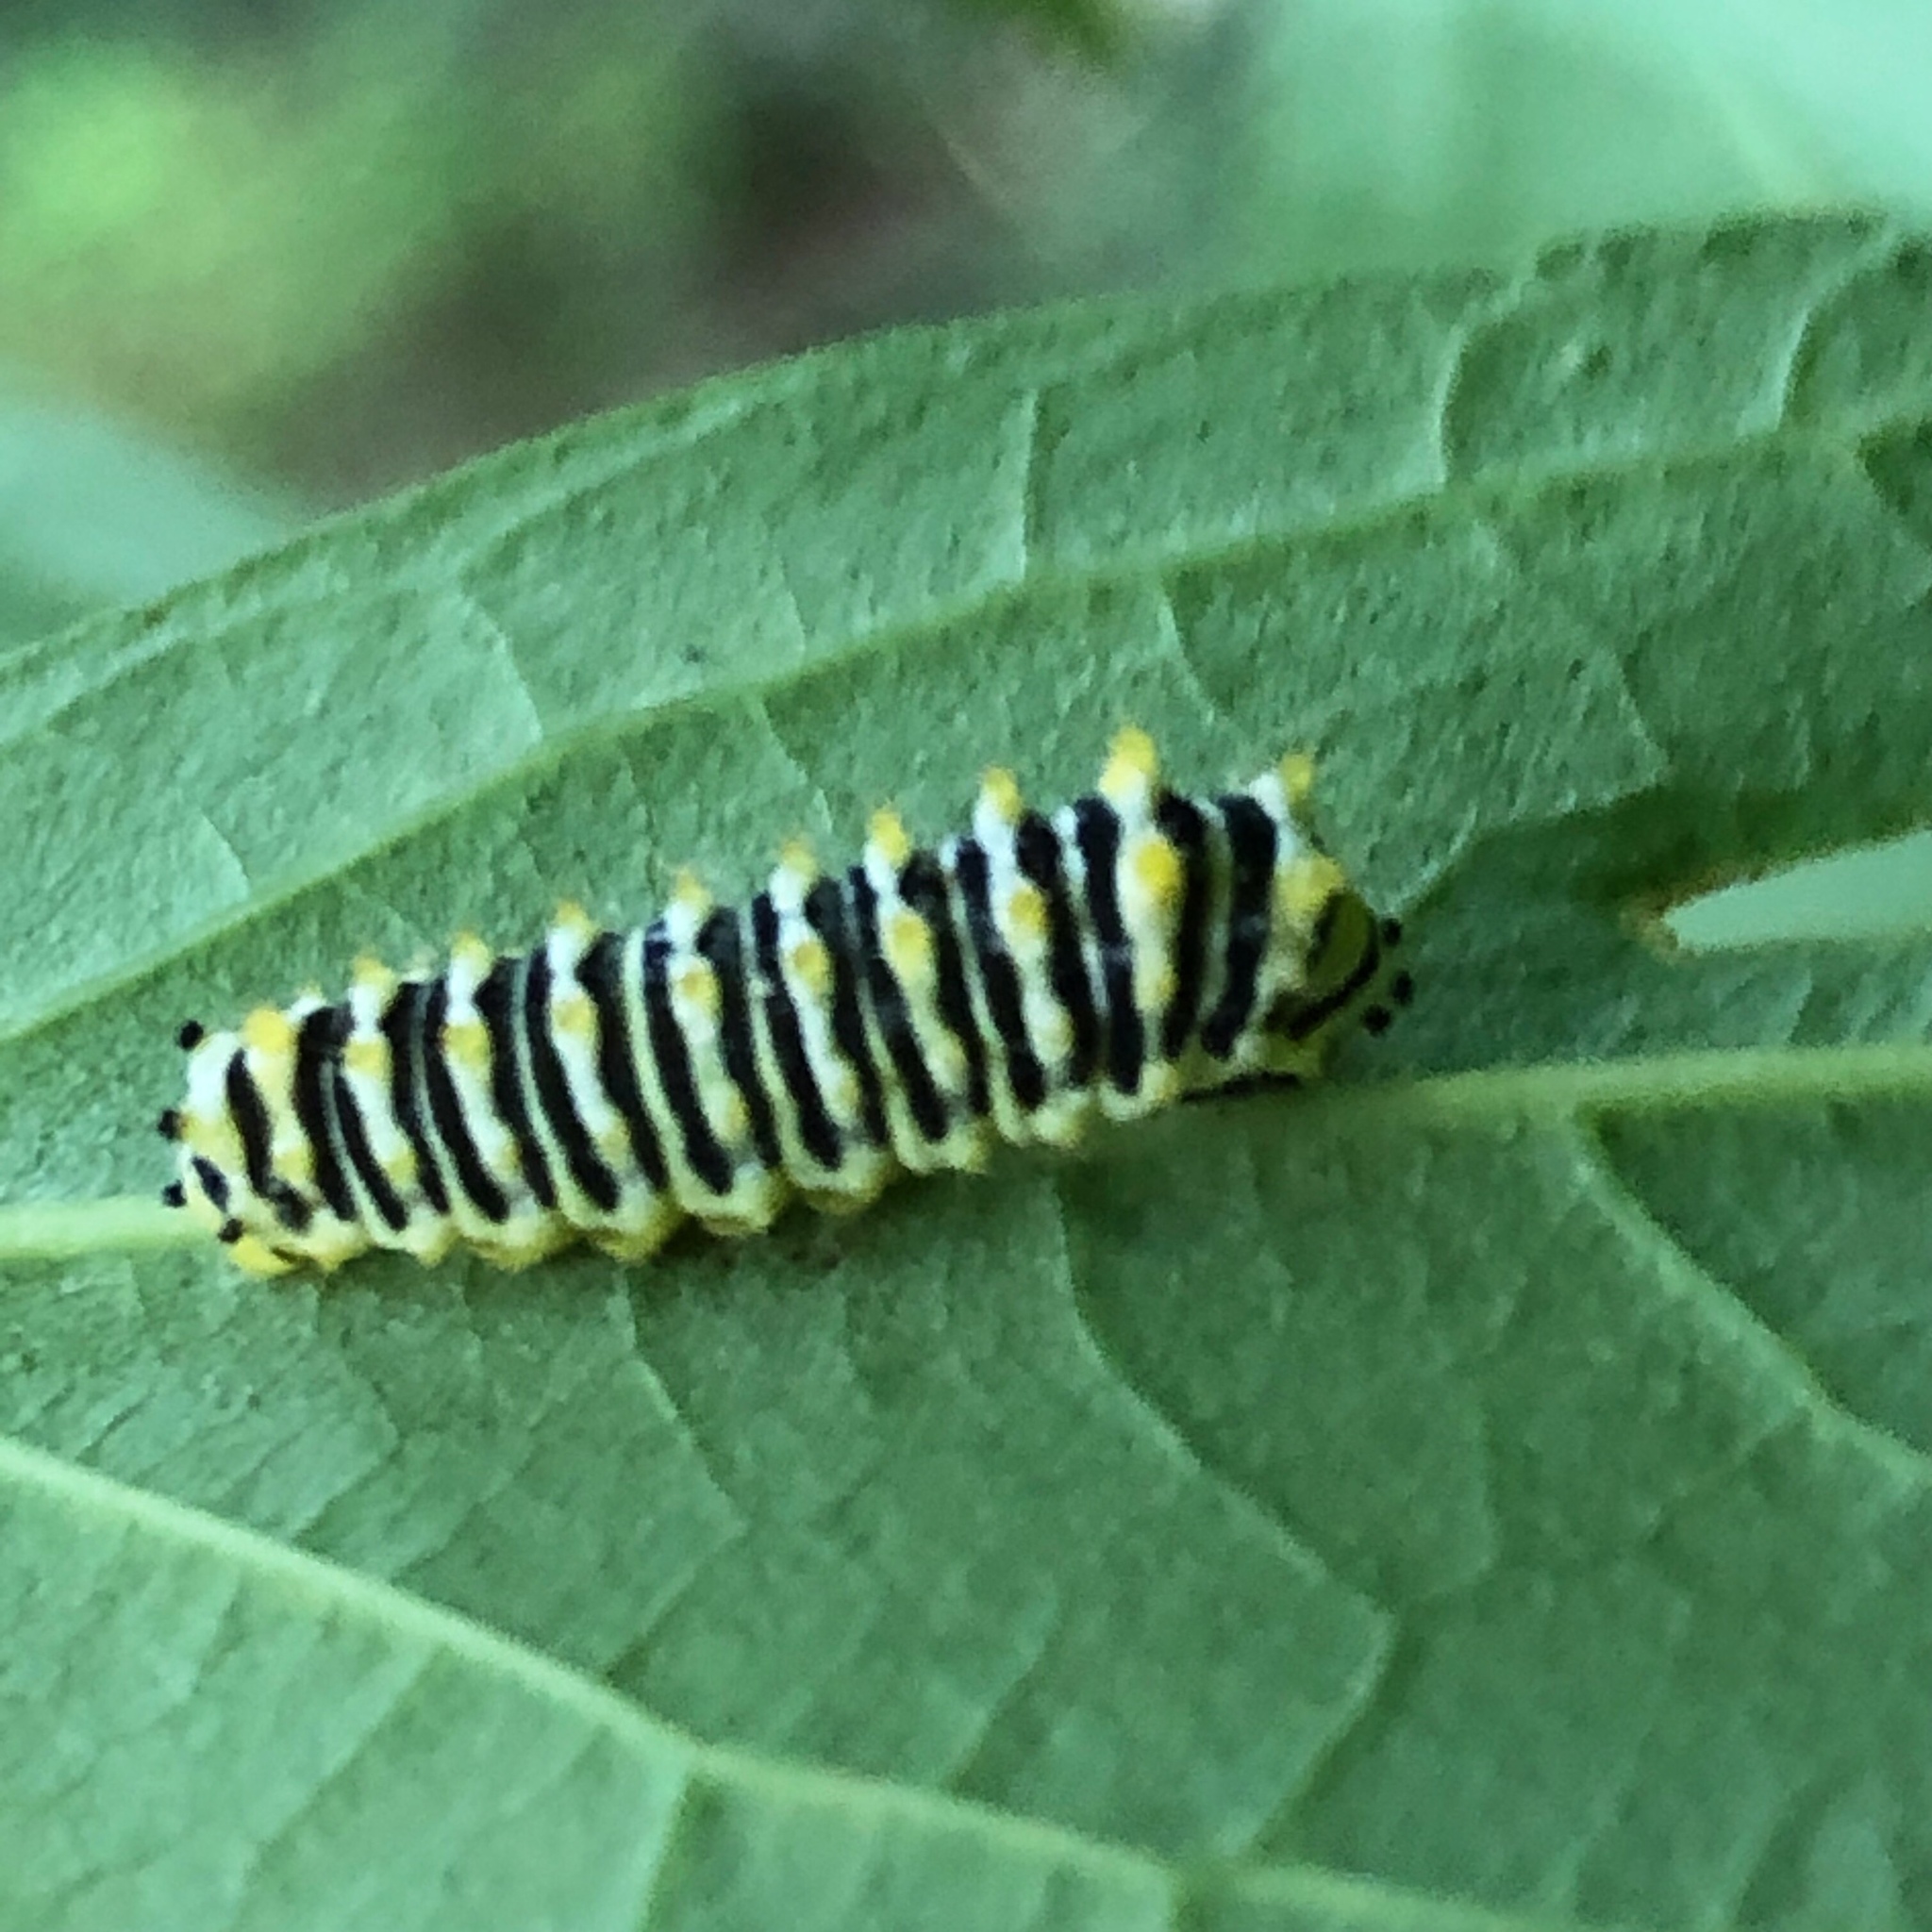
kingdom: Animalia
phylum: Arthropoda
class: Insecta
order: Lepidoptera
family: Saturniidae
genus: Callosamia
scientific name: Callosamia promethea
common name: Promethea silkmoth
